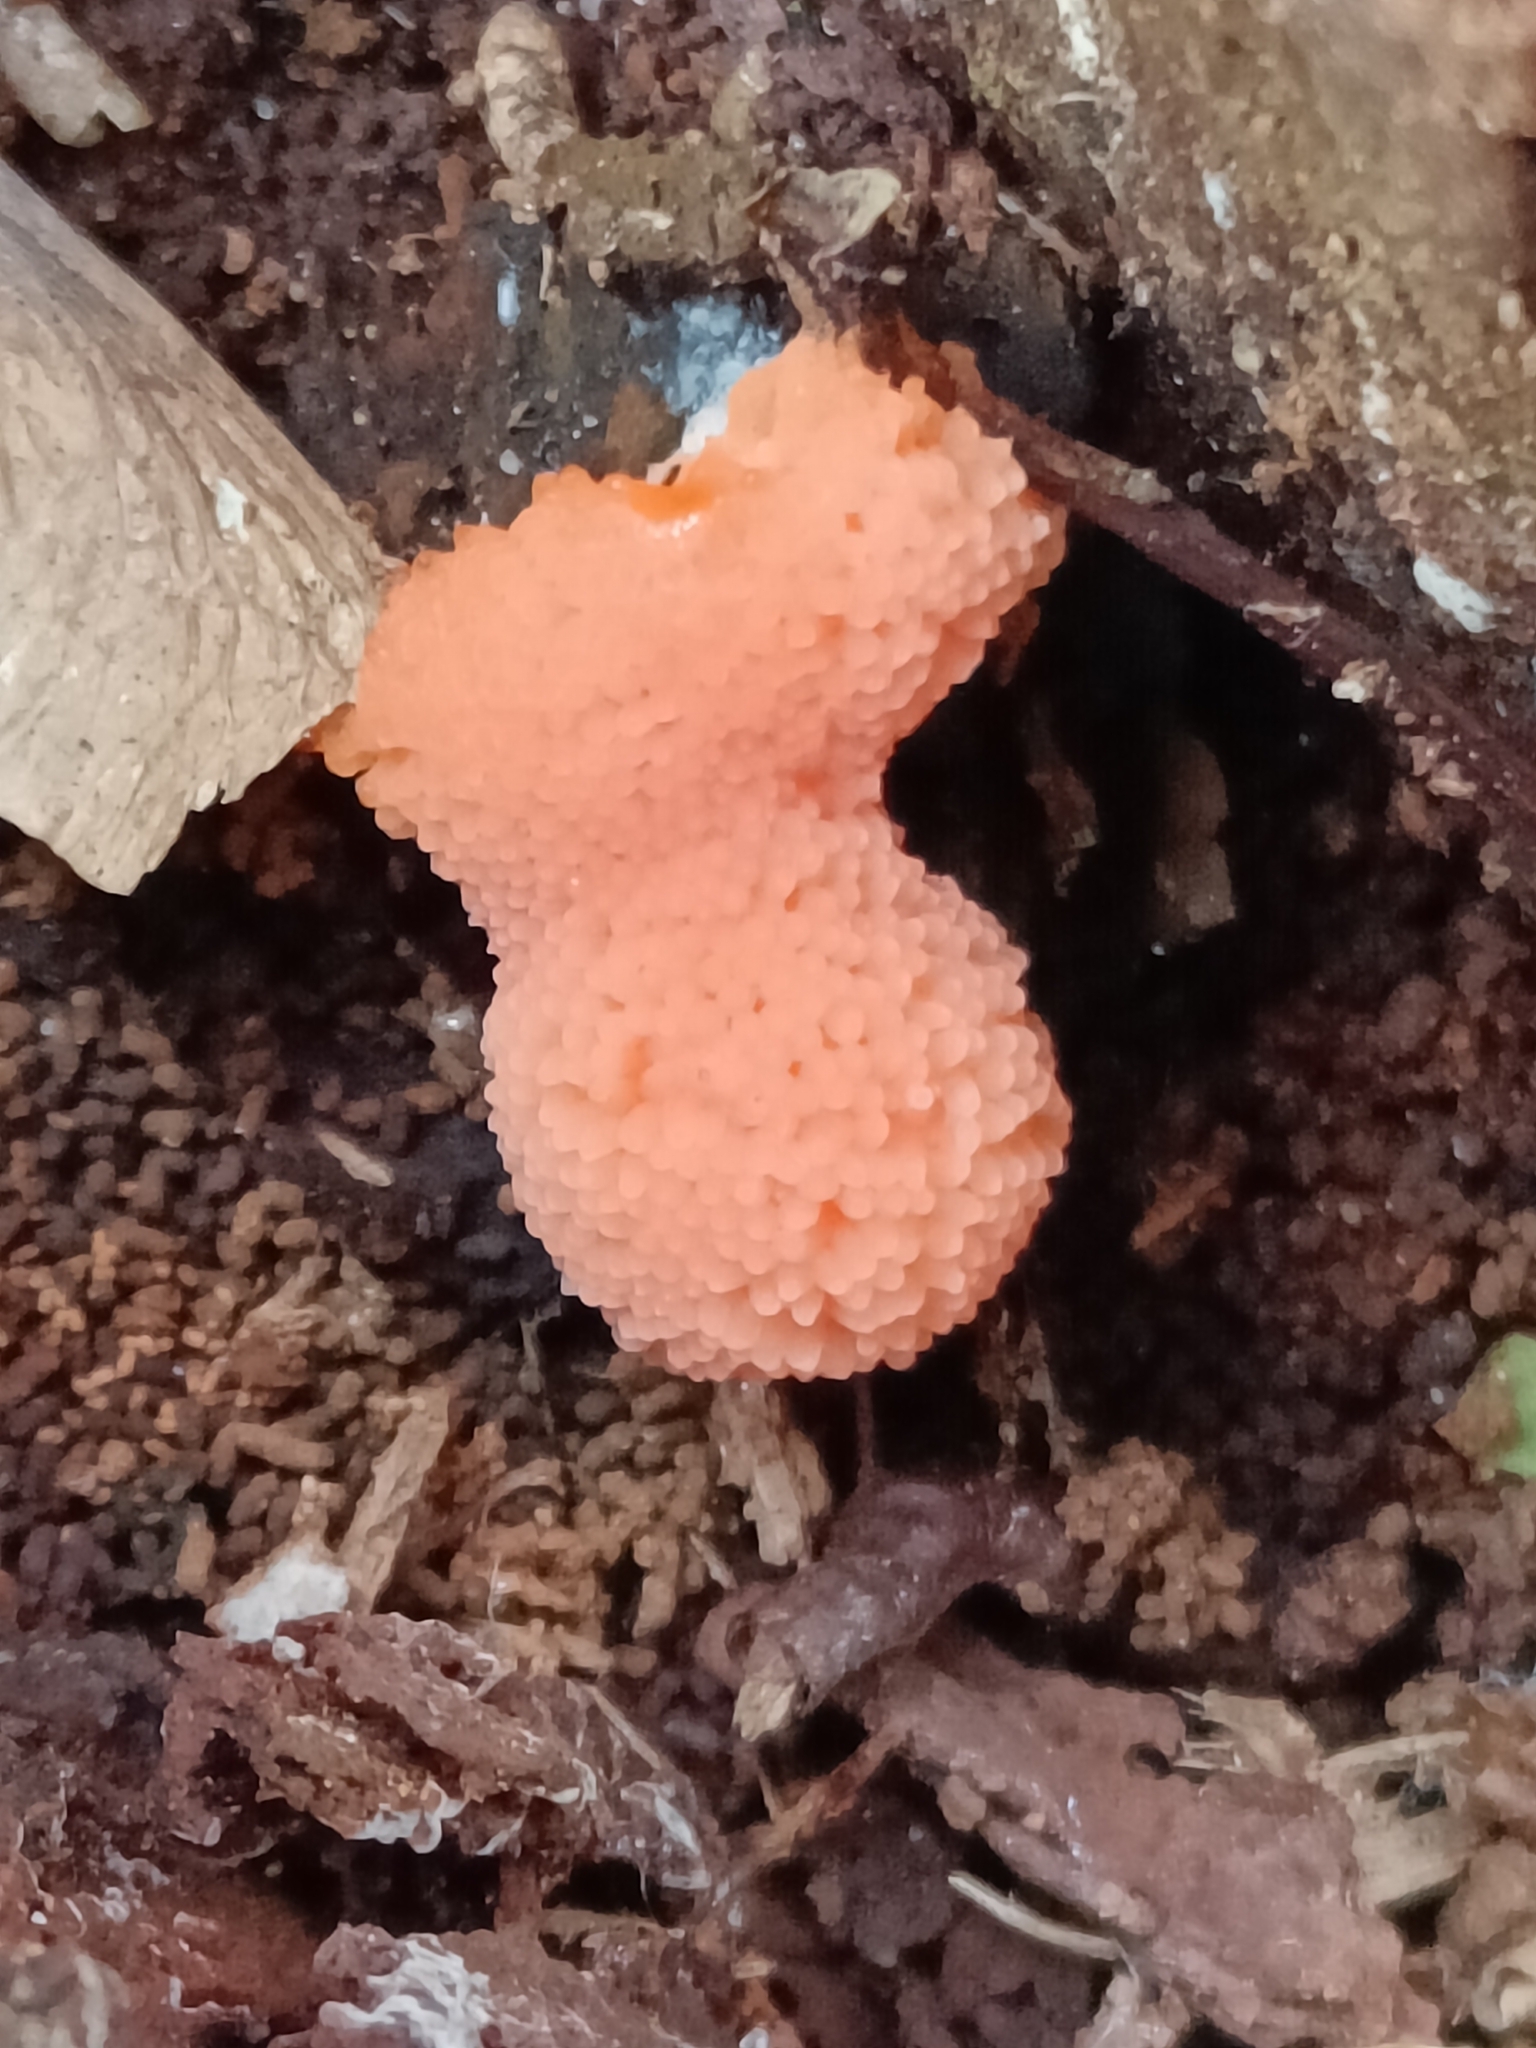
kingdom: Protozoa
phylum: Mycetozoa
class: Myxomycetes
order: Cribrariales
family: Tubiferaceae
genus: Tubifera
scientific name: Tubifera ferruginosa
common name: Red raspberry slime mold
